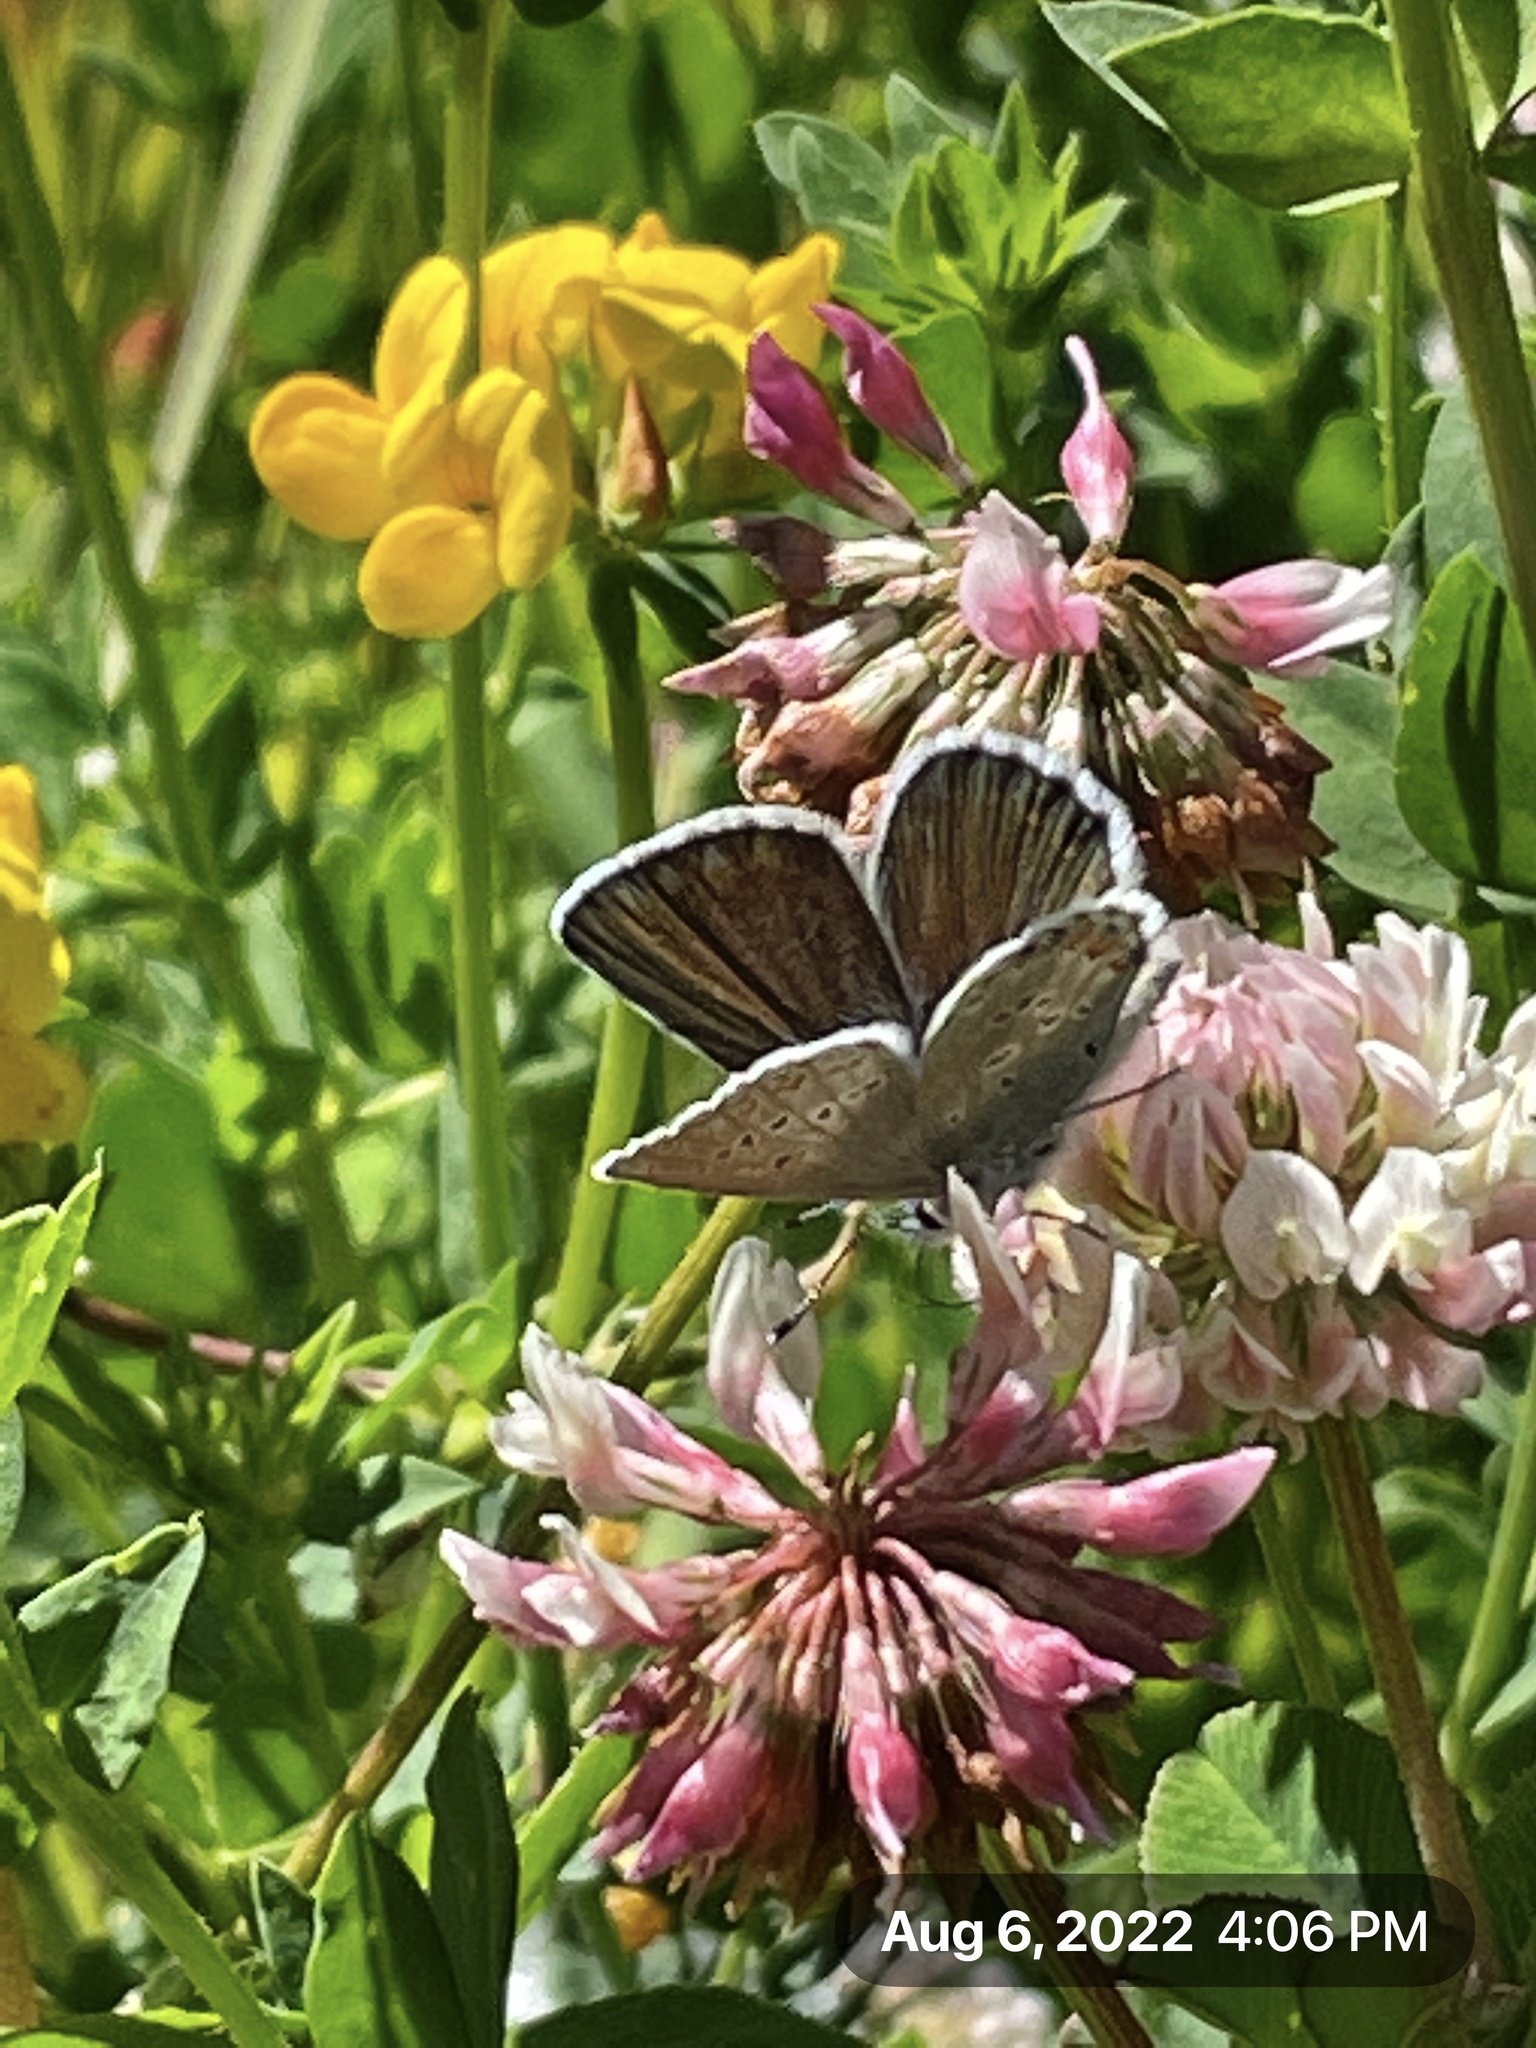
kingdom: Animalia
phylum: Arthropoda
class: Insecta
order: Lepidoptera
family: Lycaenidae
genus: Lycaeides
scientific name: Lycaeides anna
